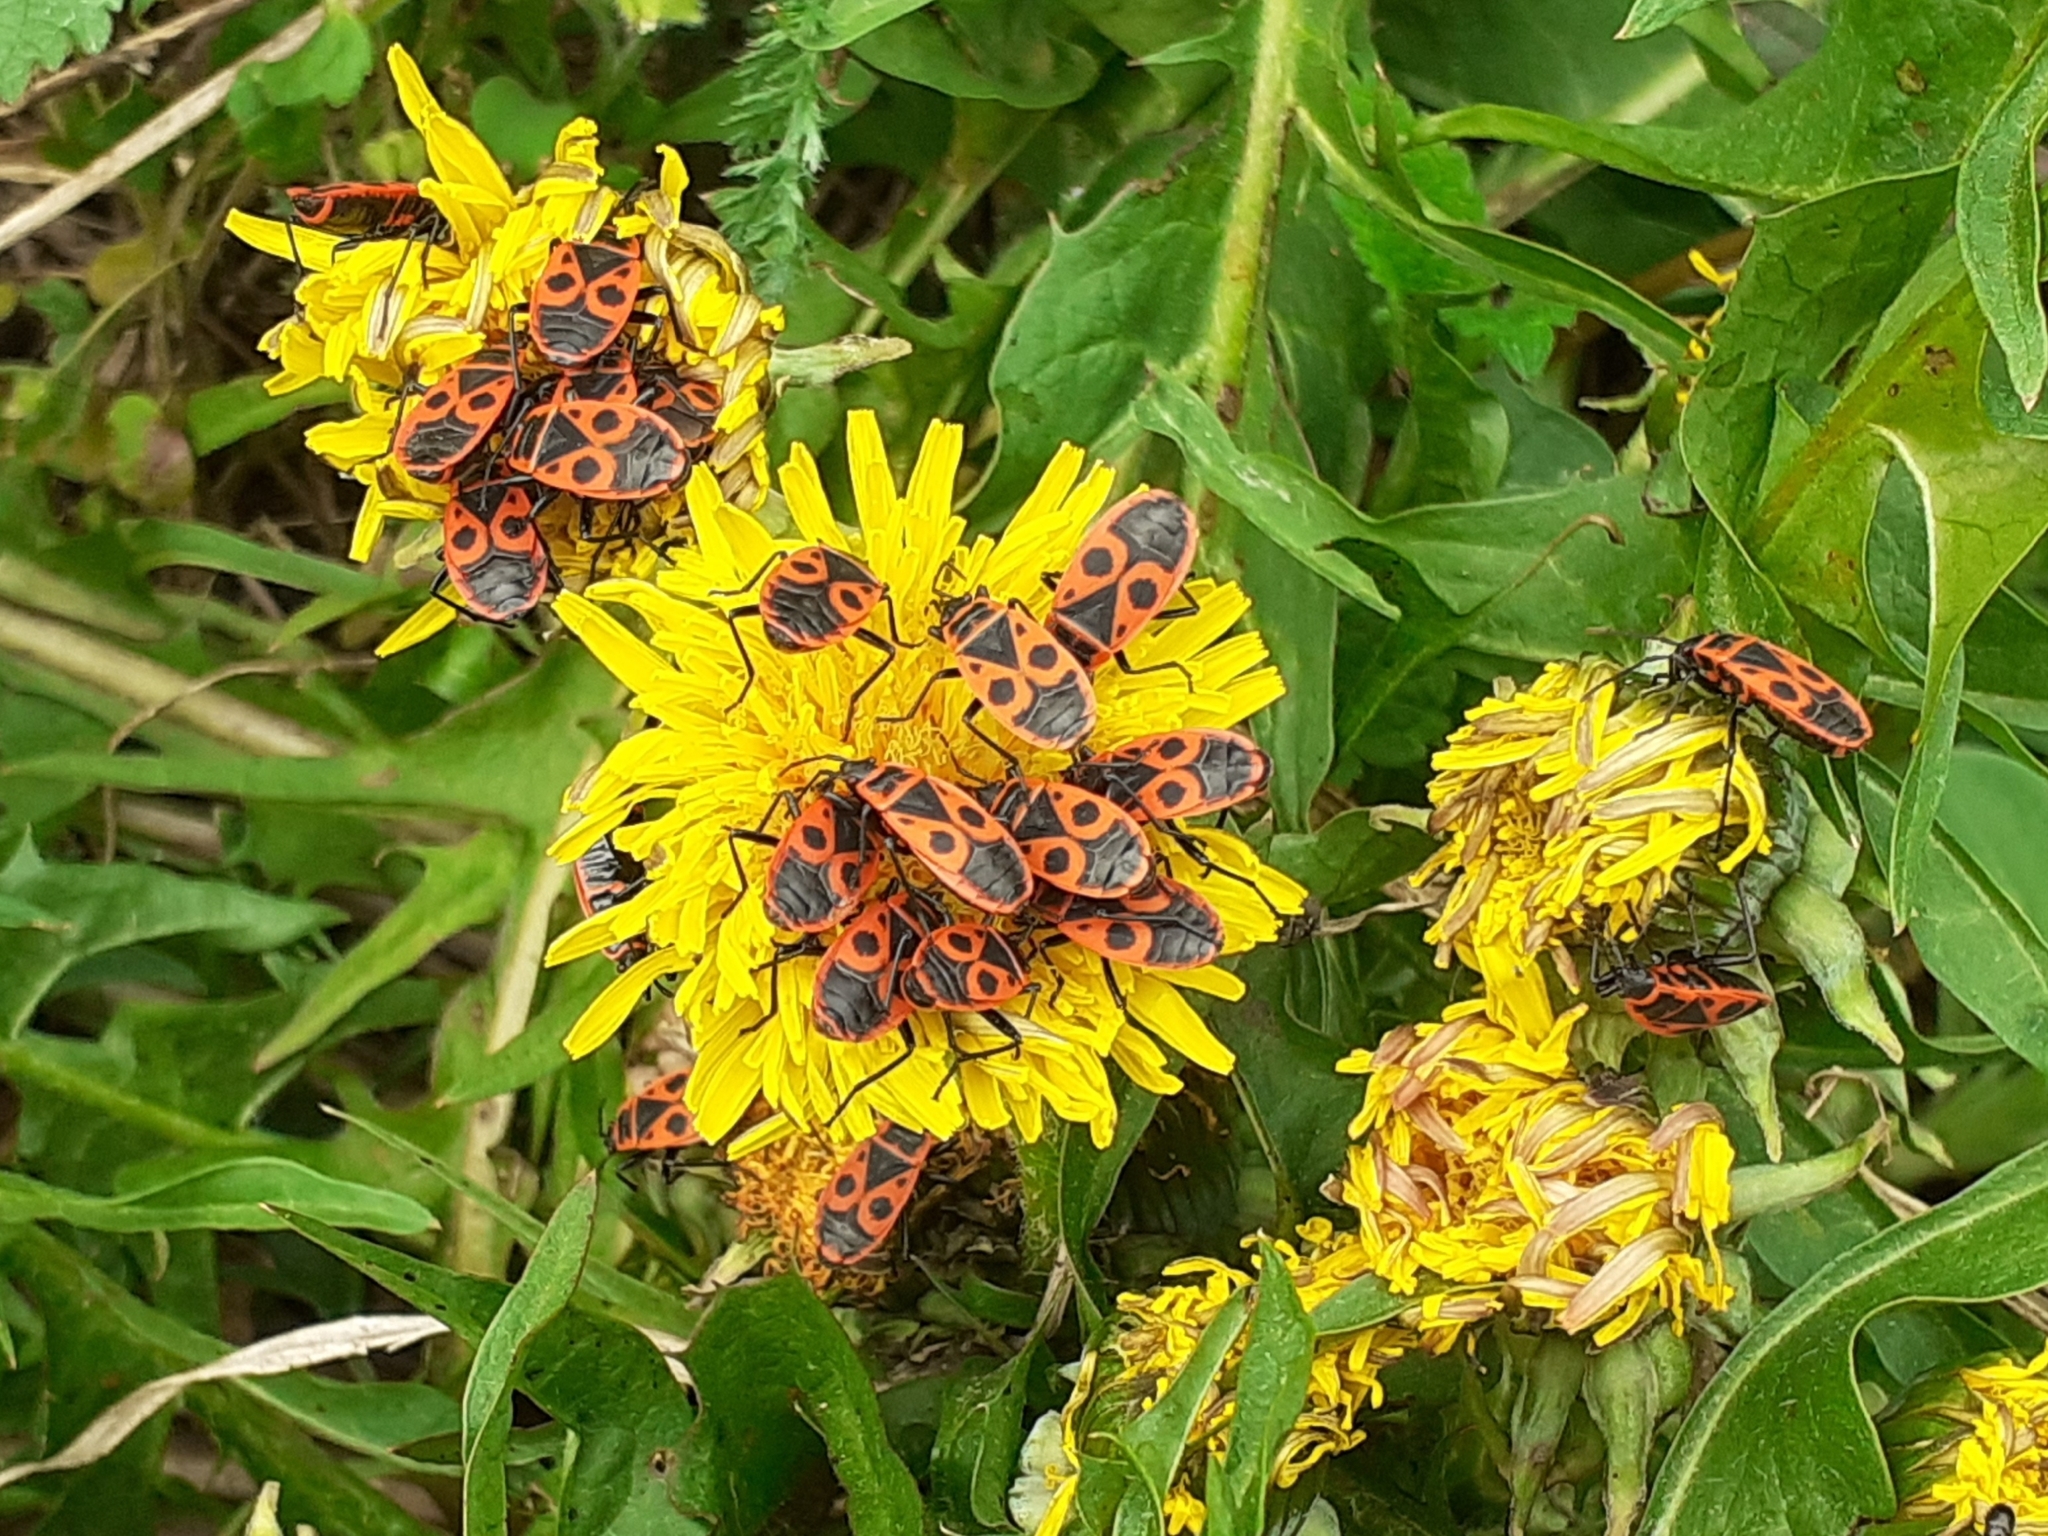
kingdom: Animalia
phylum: Arthropoda
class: Insecta
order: Hemiptera
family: Pyrrhocoridae
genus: Pyrrhocoris
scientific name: Pyrrhocoris apterus
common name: Firebug
